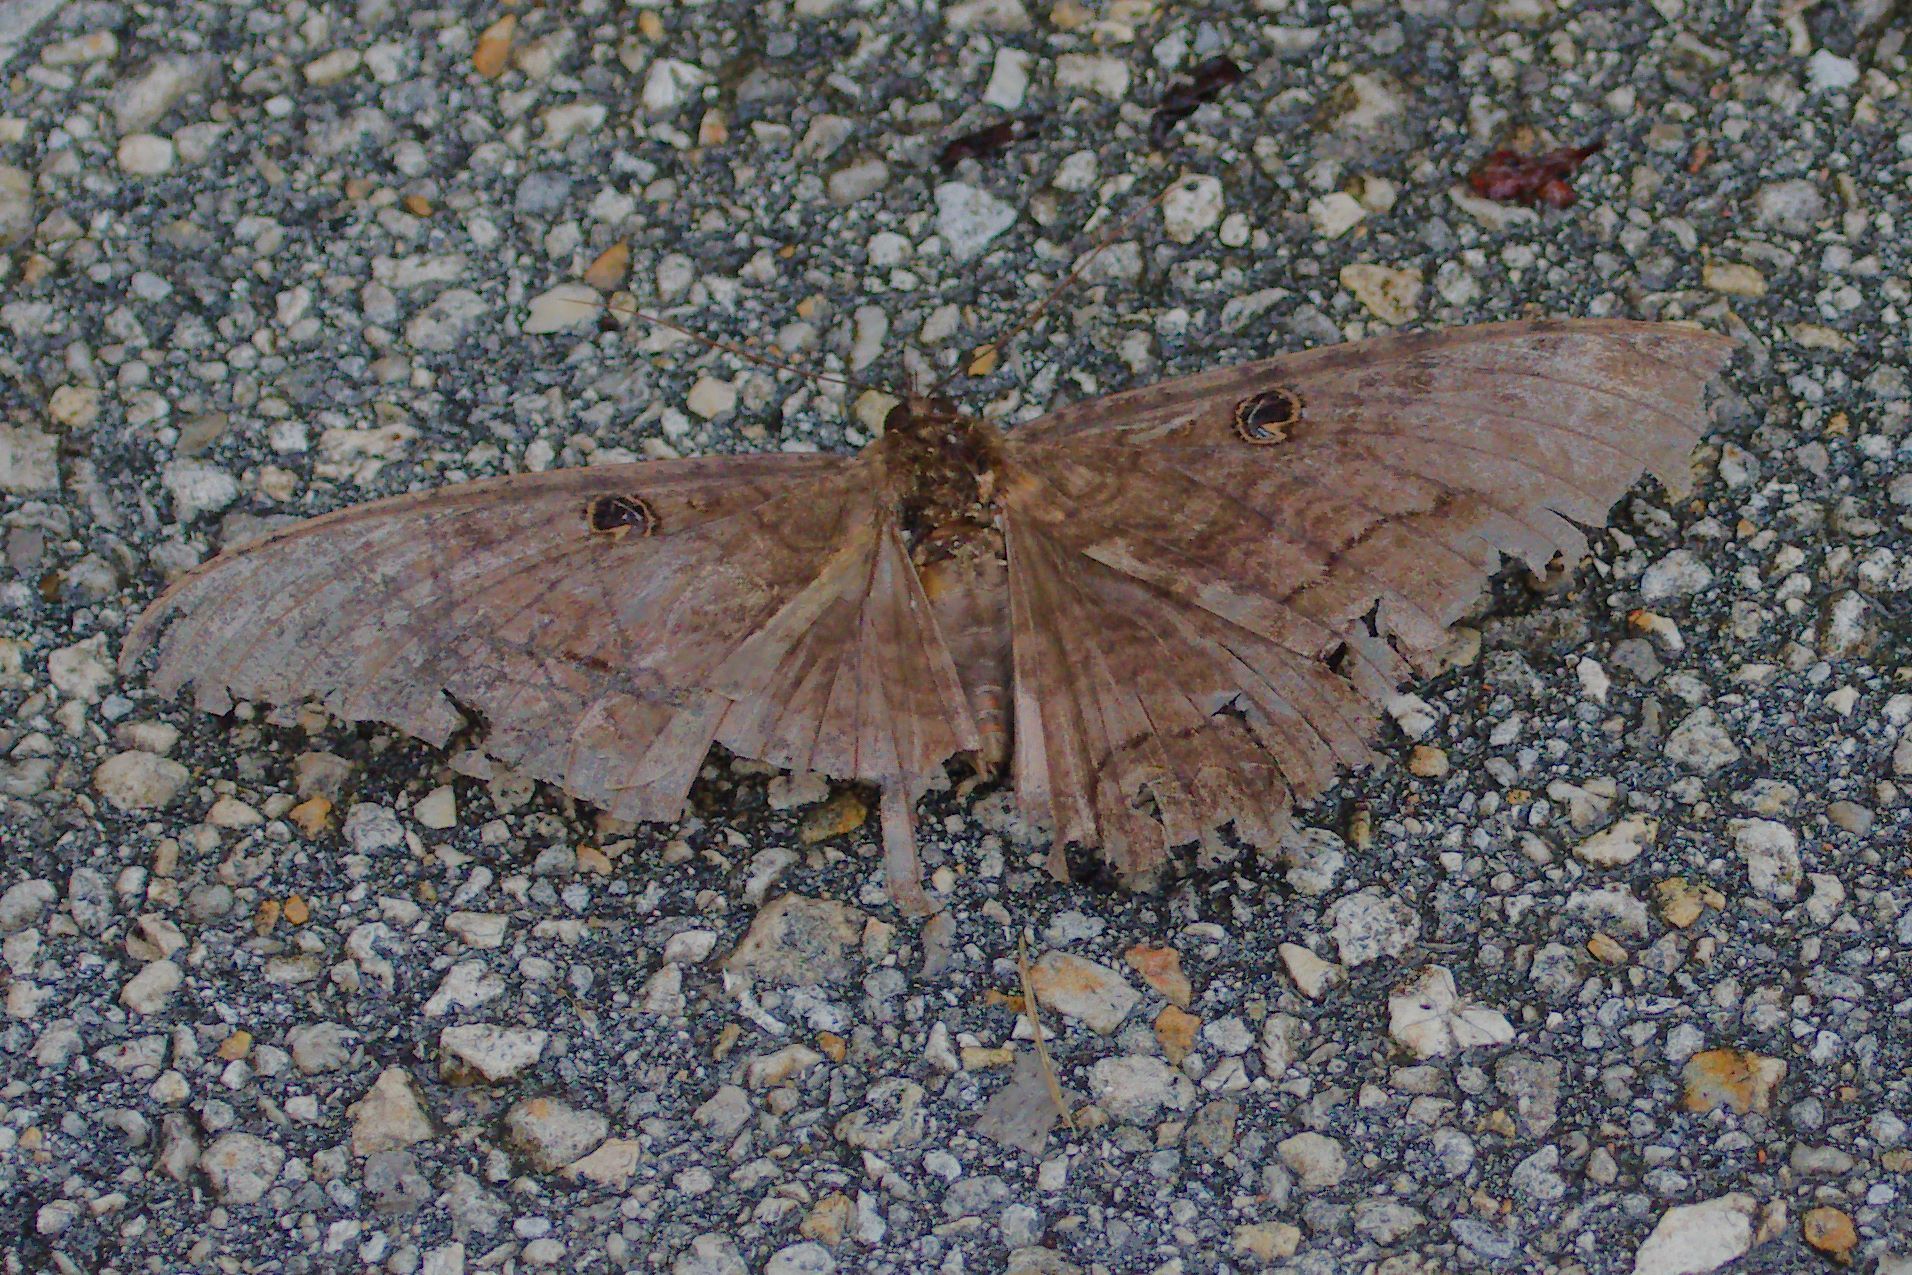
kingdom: Animalia
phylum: Arthropoda
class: Insecta
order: Lepidoptera
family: Erebidae
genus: Ascalapha
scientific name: Ascalapha odorata
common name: Black witch
